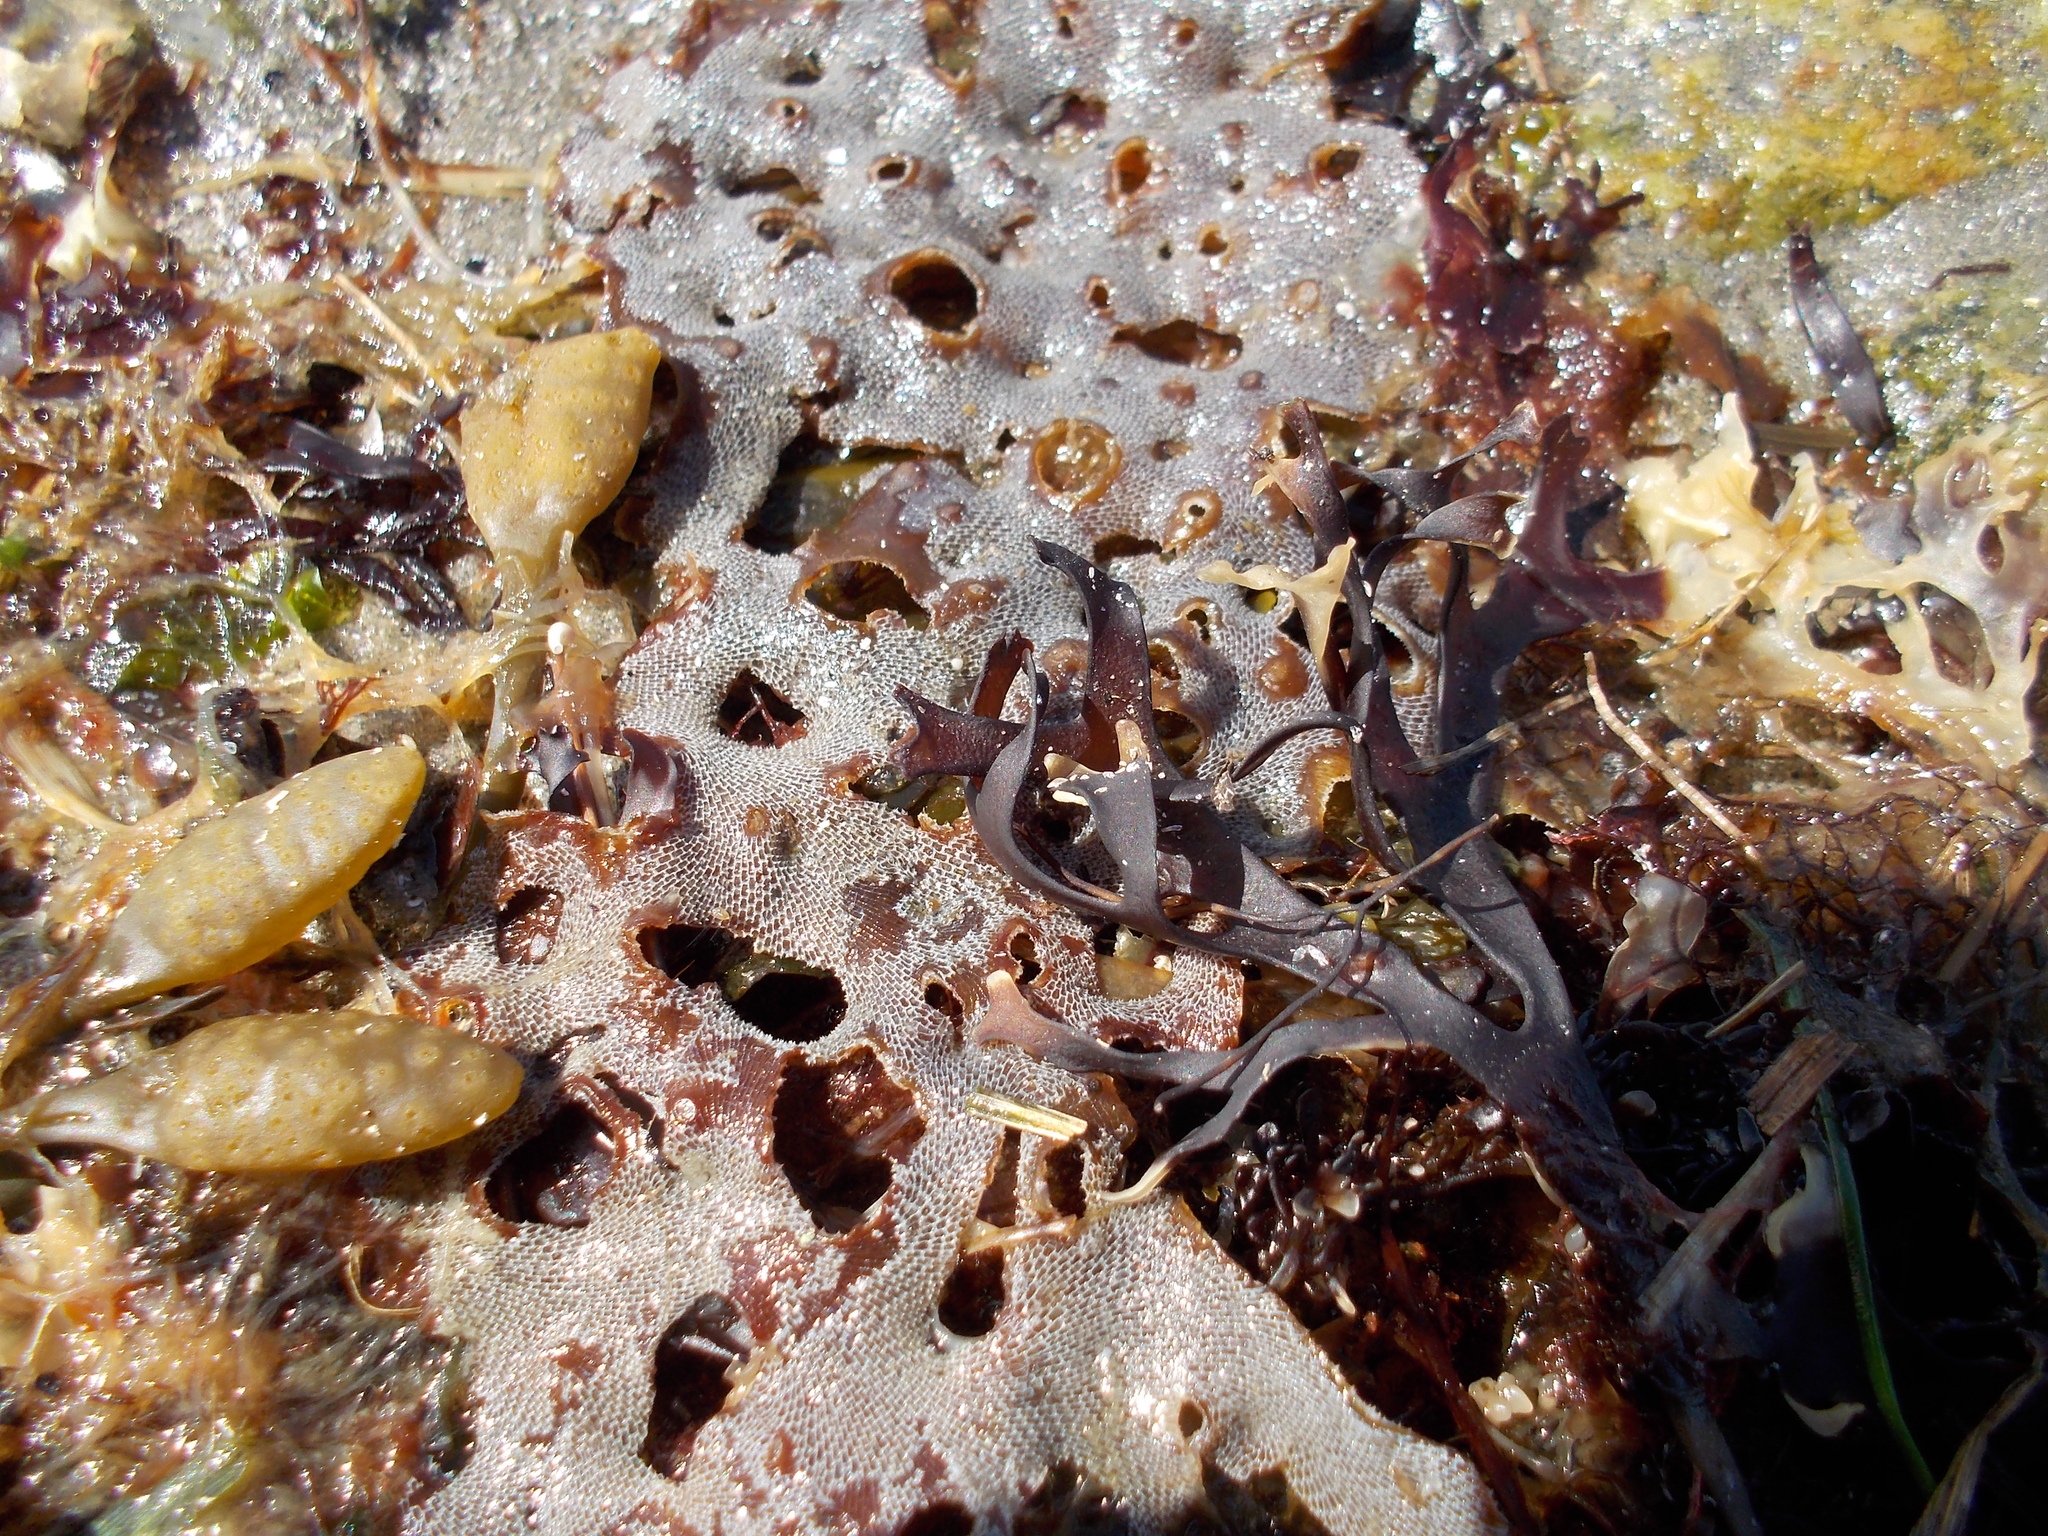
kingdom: Animalia
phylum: Bryozoa
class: Gymnolaemata
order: Cheilostomatida
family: Membraniporidae
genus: Membranipora
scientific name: Membranipora membranacea
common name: Sea mat
